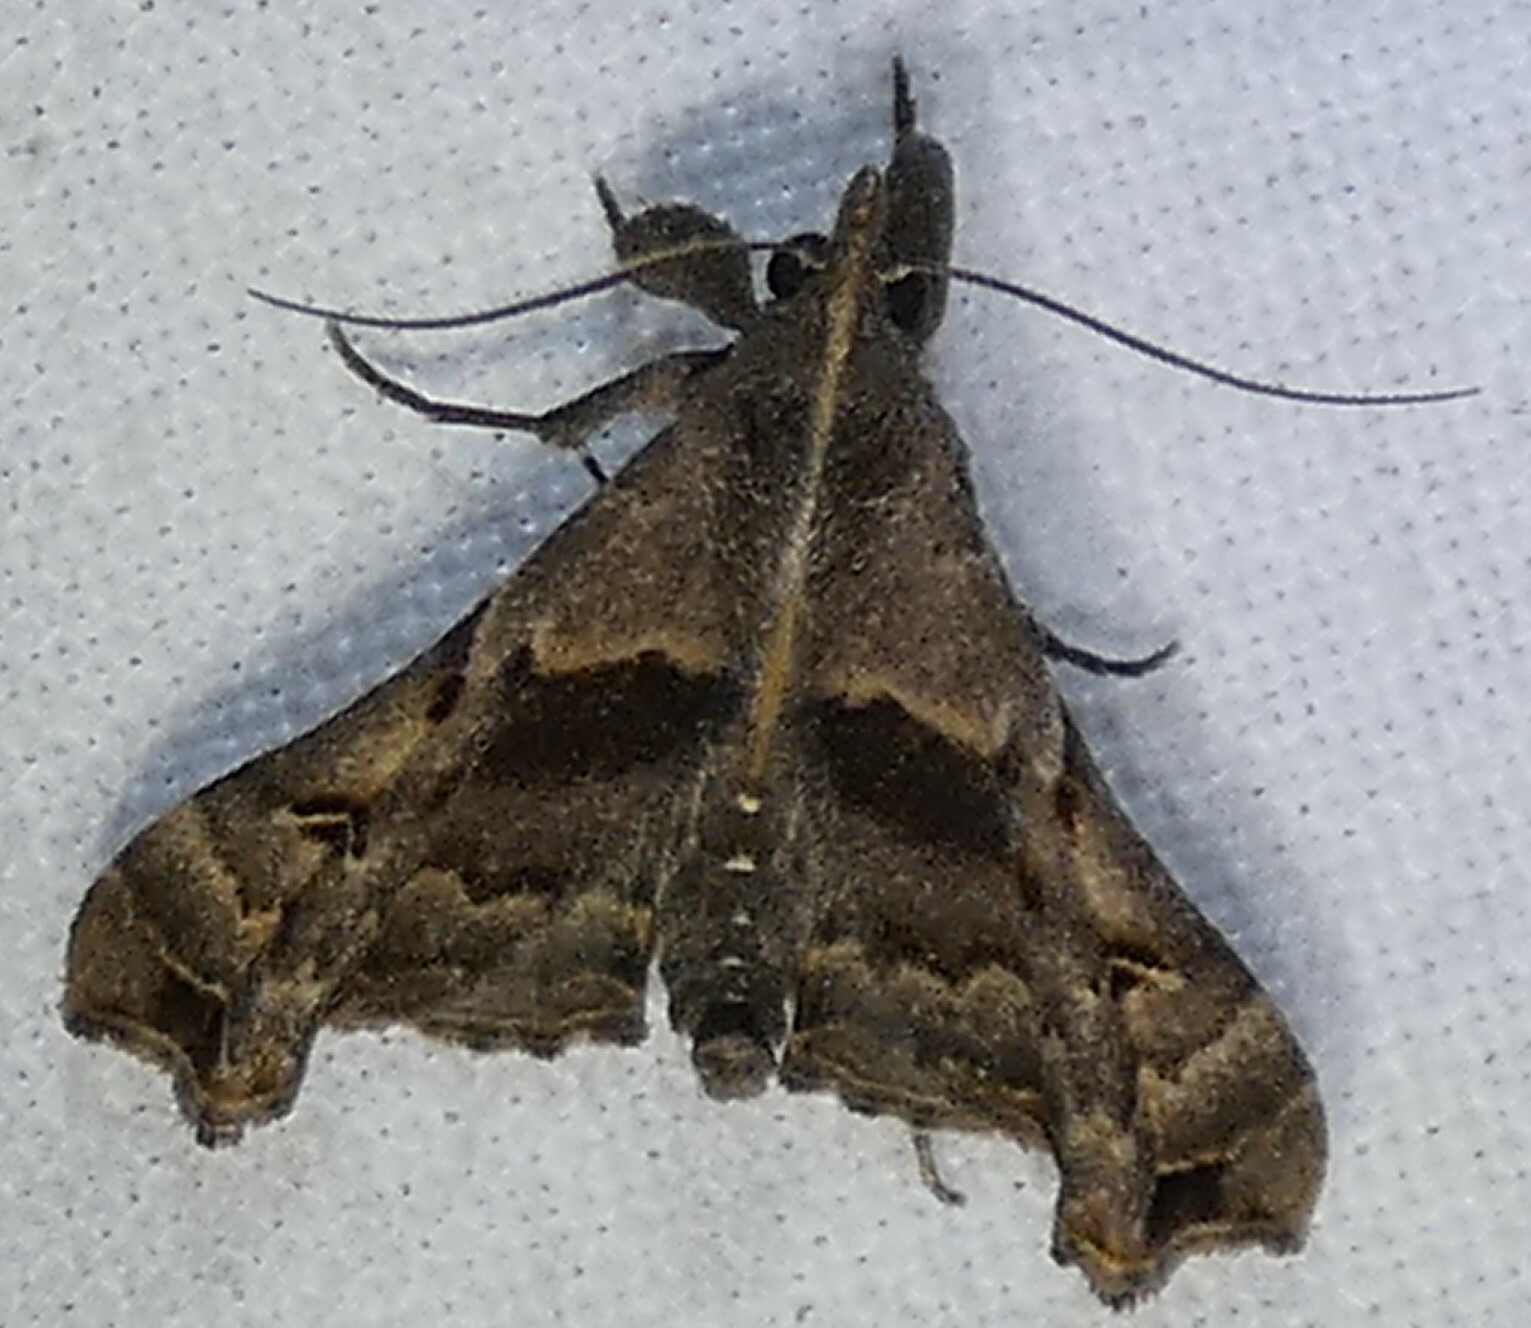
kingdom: Animalia
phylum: Arthropoda
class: Insecta
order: Lepidoptera
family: Erebidae
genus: Palthis
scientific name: Palthis asopialis
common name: Faint-spotted palthis moth
